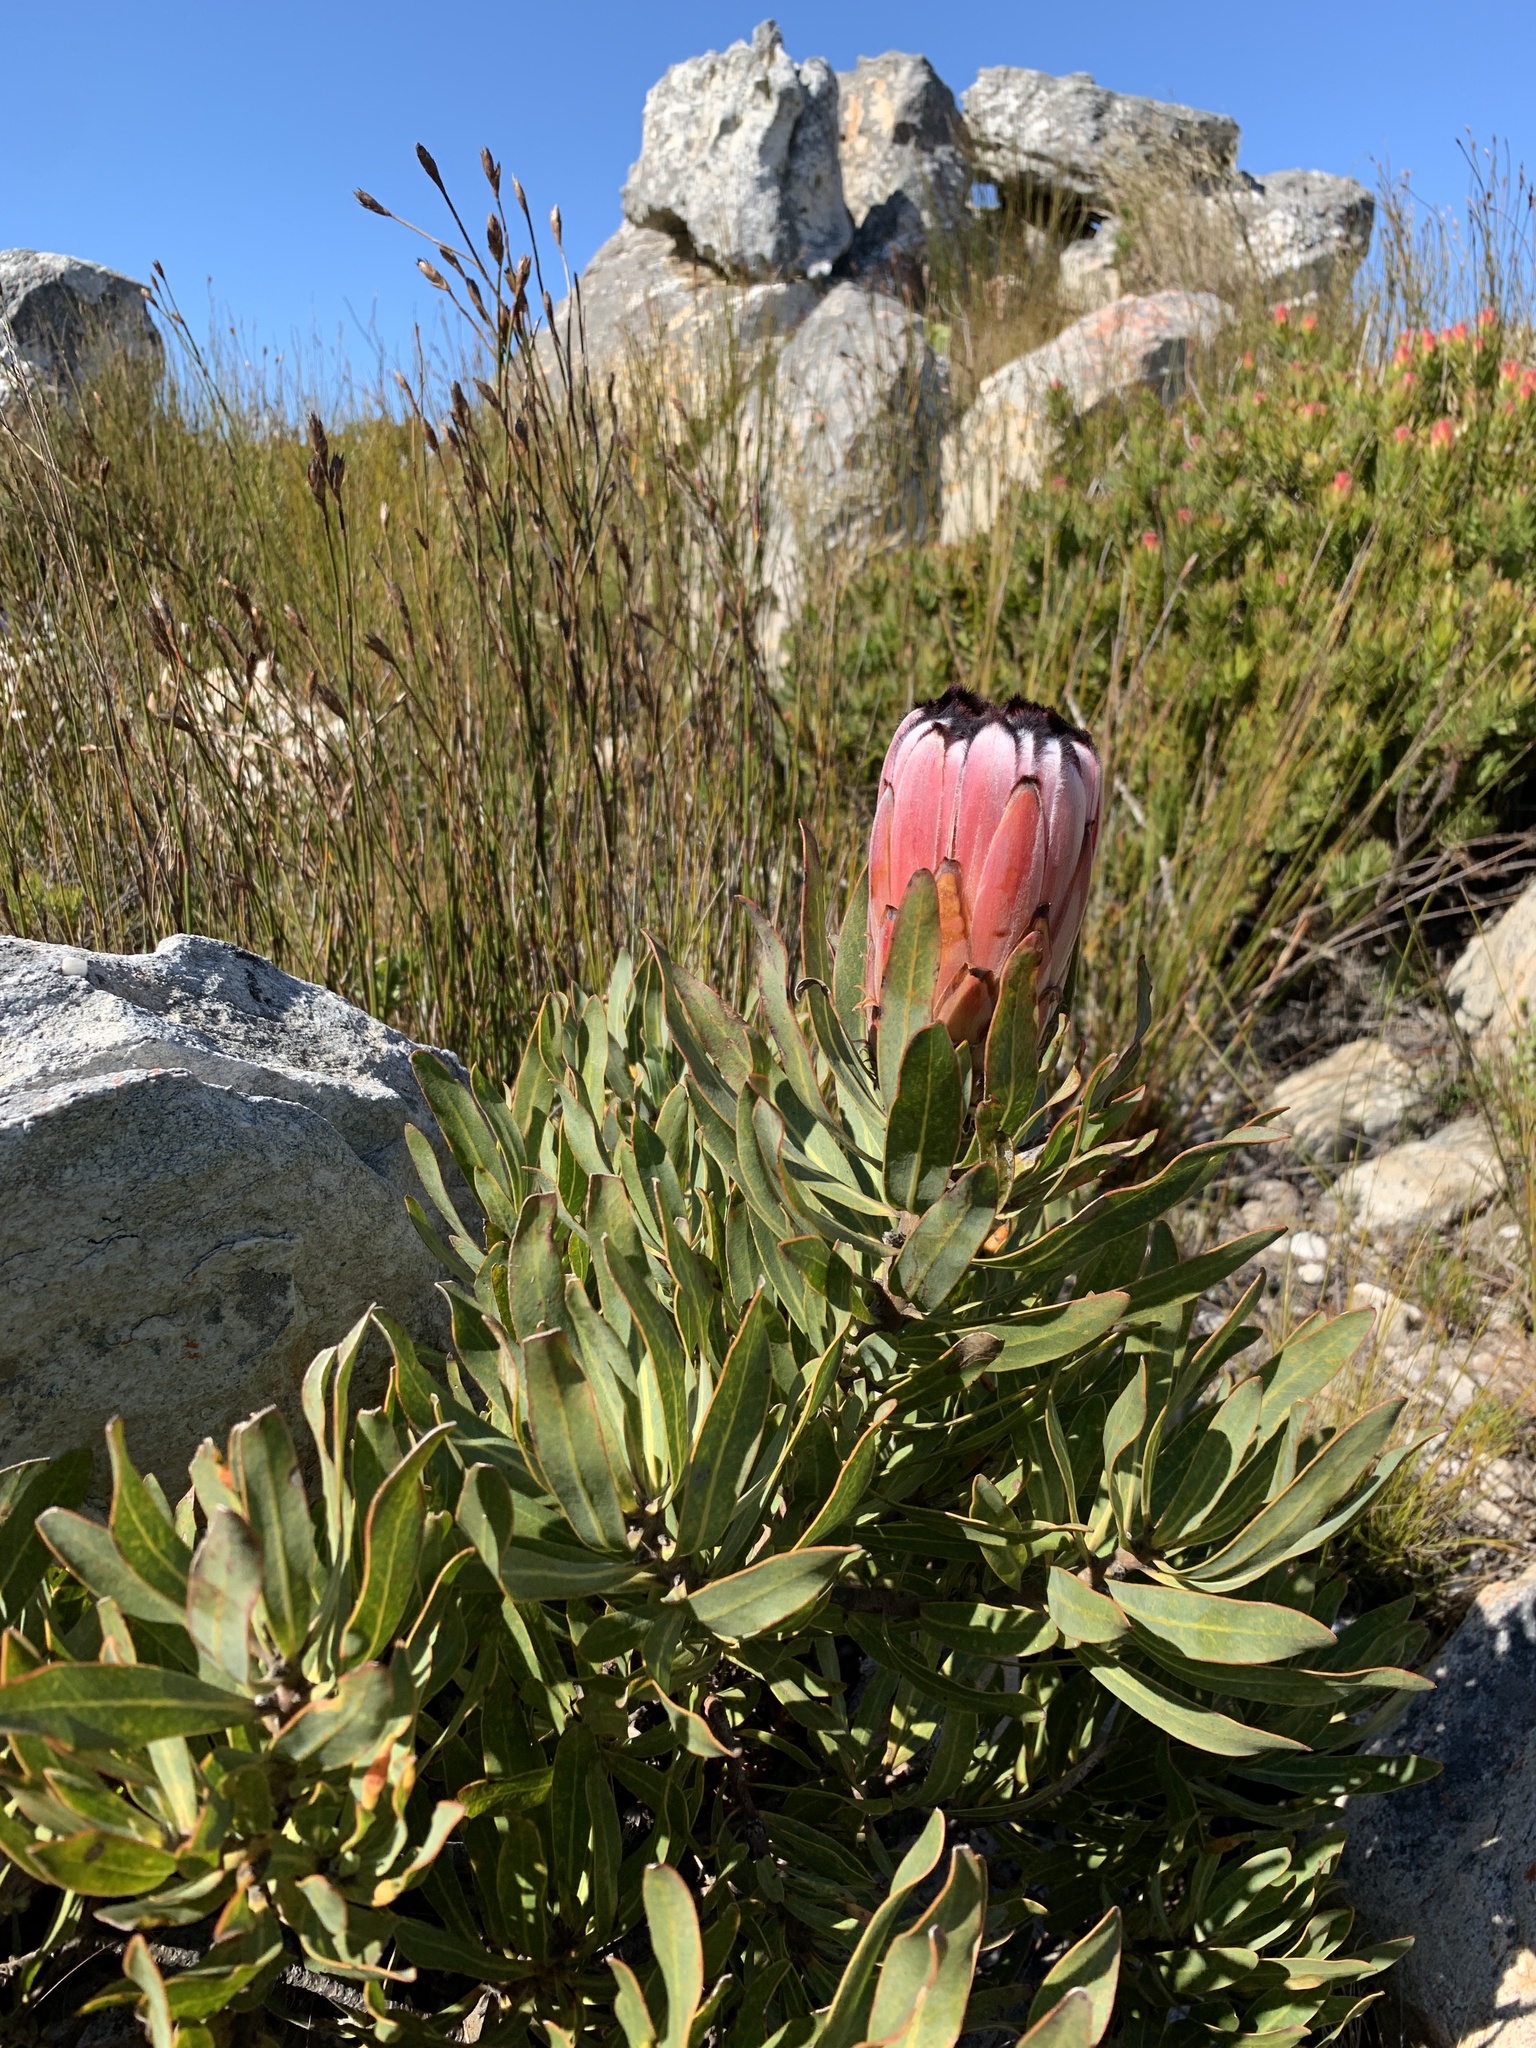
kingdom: Plantae
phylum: Tracheophyta
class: Magnoliopsida
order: Proteales
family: Proteaceae
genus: Protea
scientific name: Protea neriifolia
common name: Blue sugarbush
